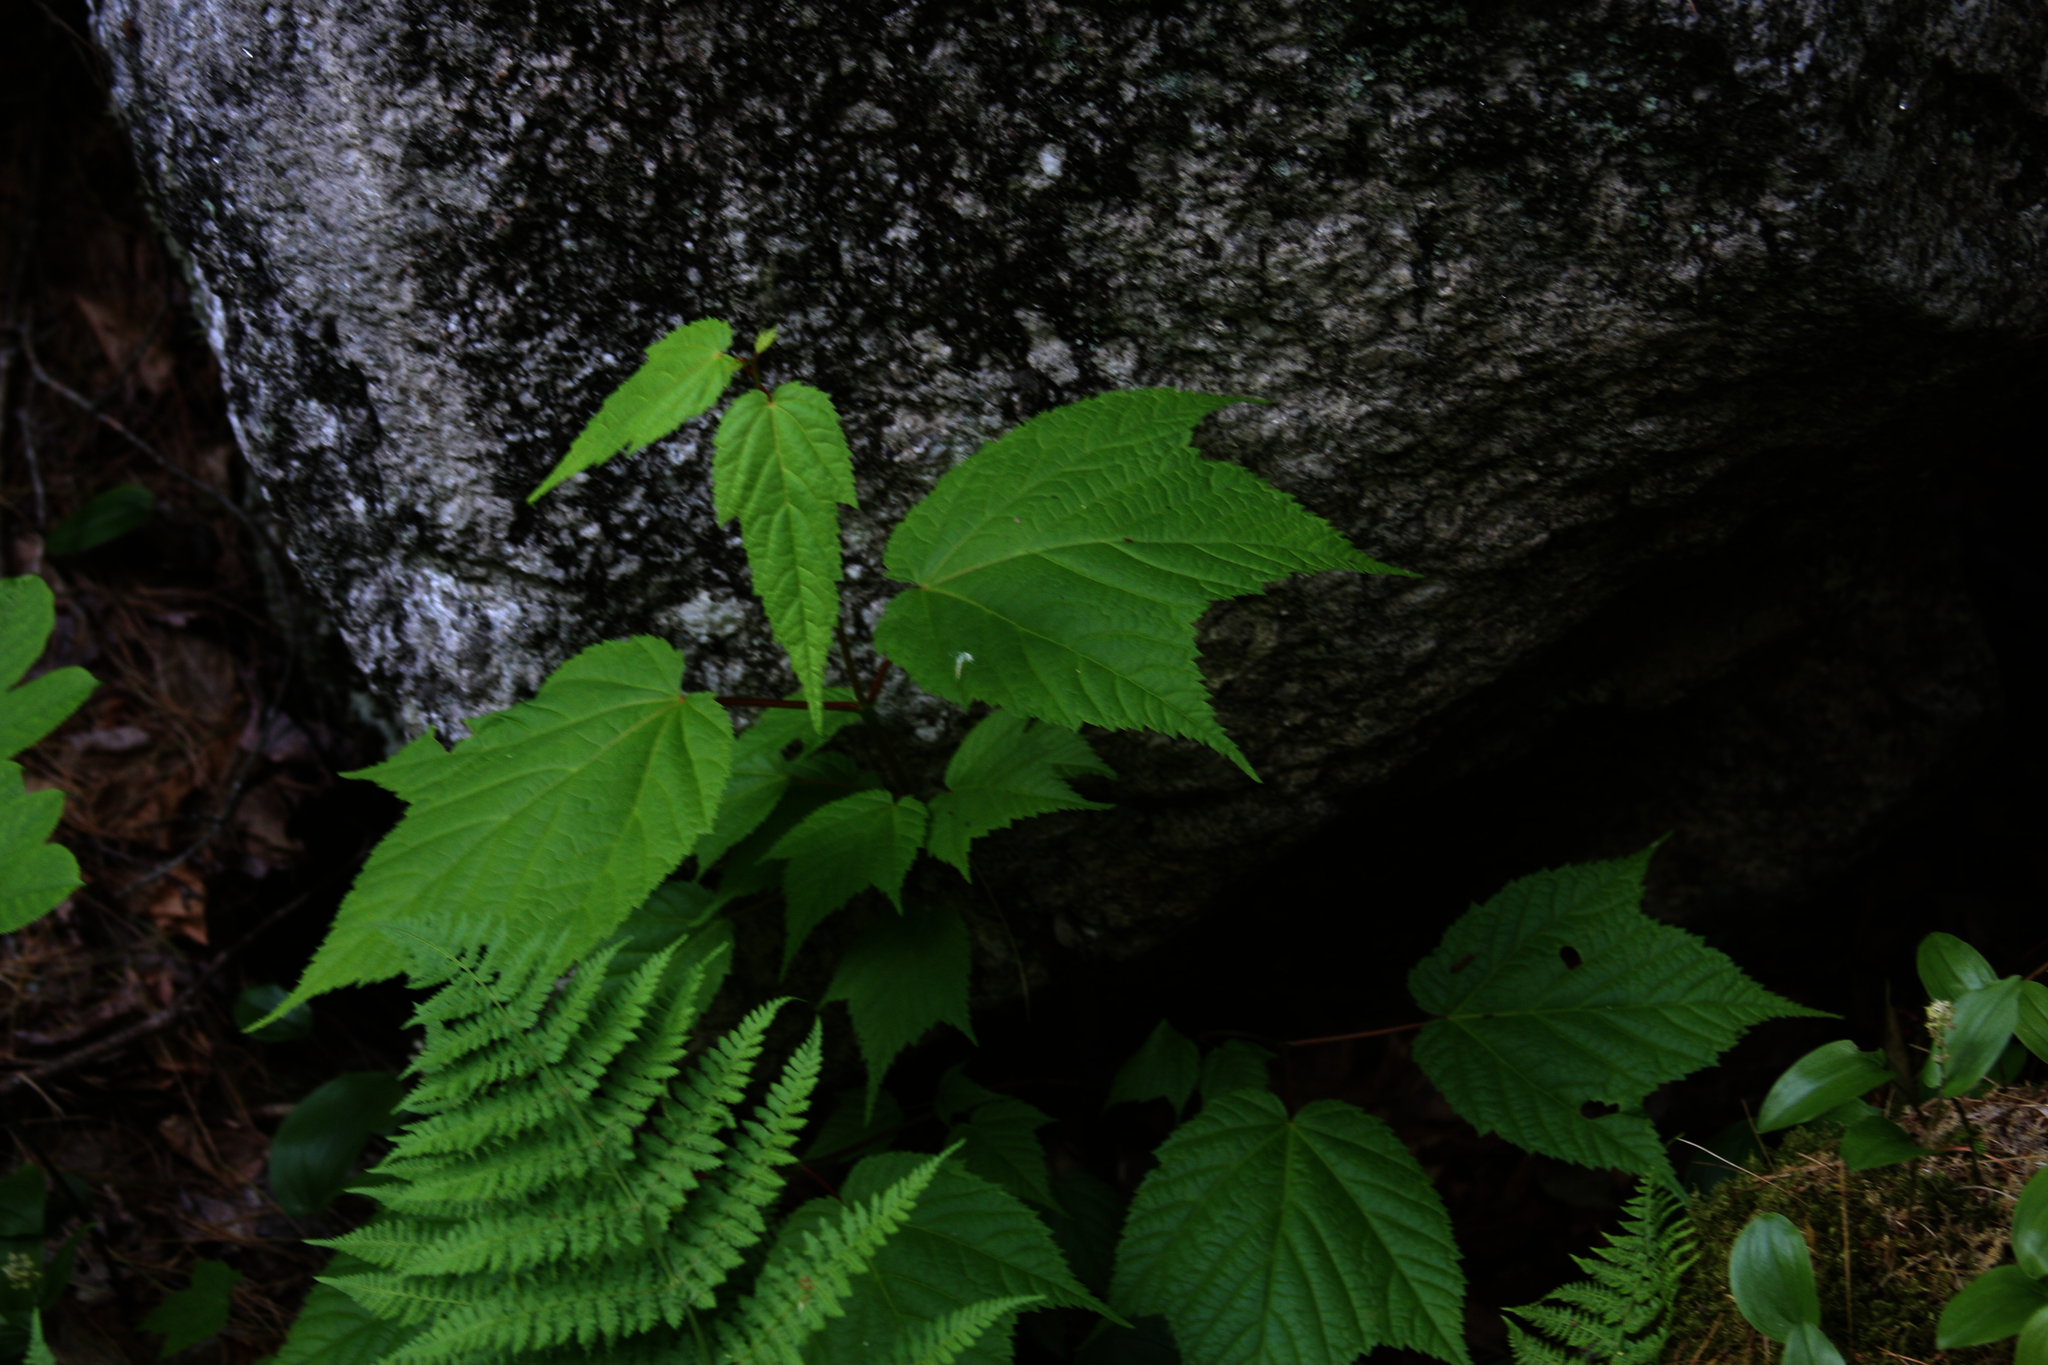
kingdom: Plantae
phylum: Tracheophyta
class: Magnoliopsida
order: Sapindales
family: Sapindaceae
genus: Acer
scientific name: Acer pensylvanicum
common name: Moosewood
